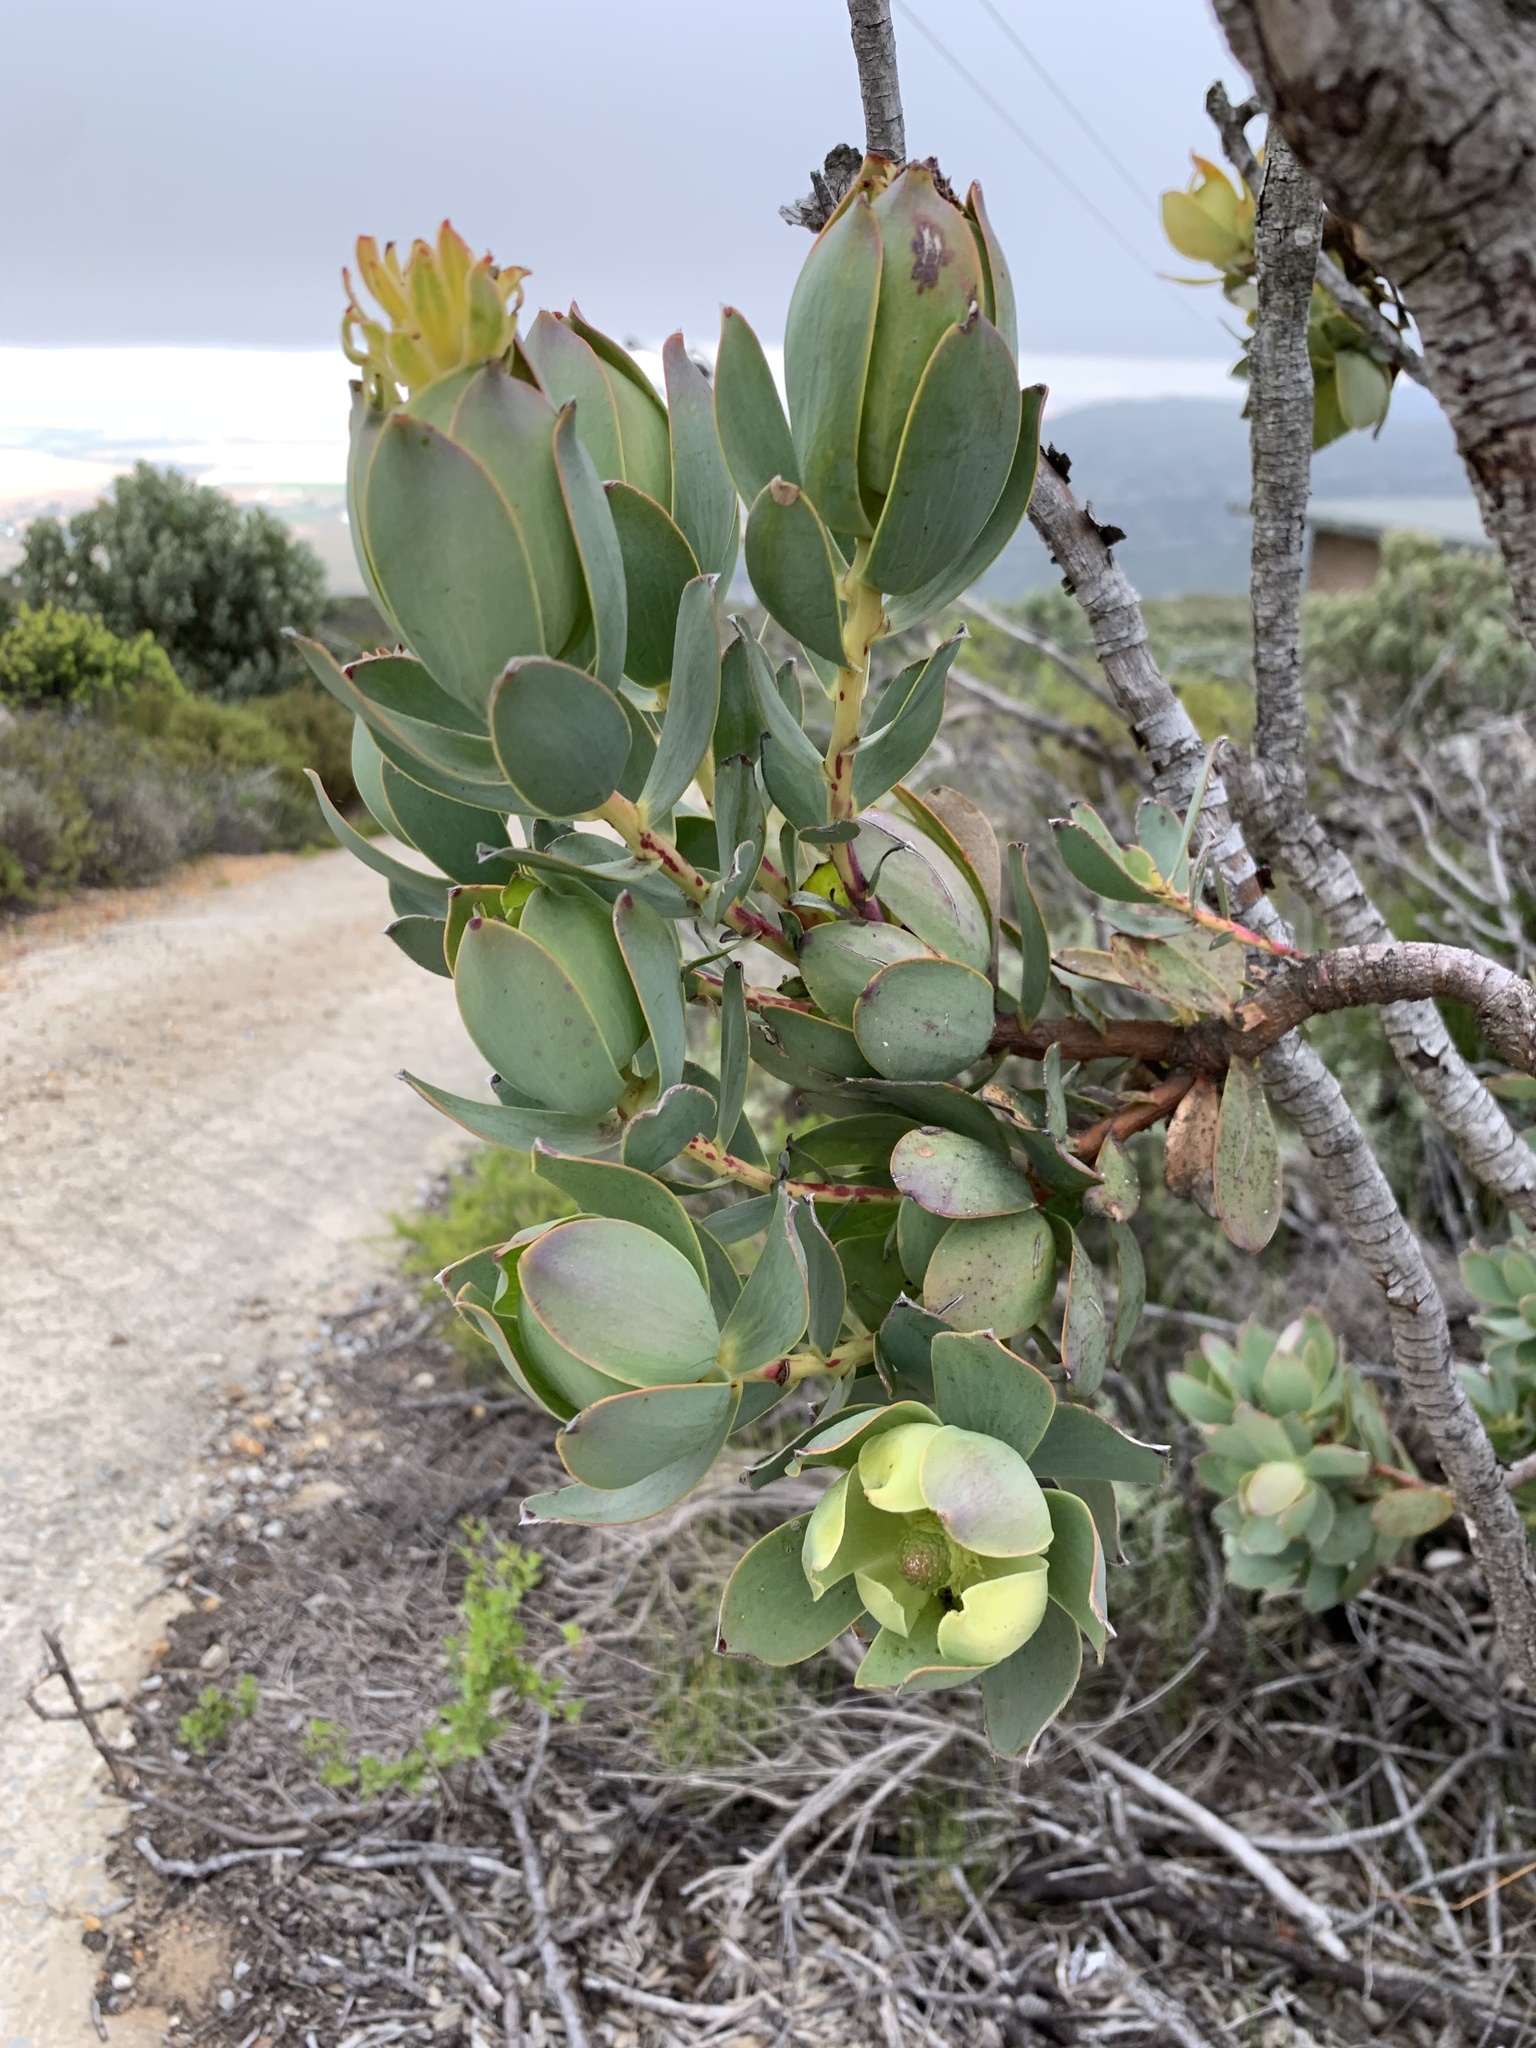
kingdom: Plantae
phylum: Tracheophyta
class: Magnoliopsida
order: Proteales
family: Proteaceae
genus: Leucadendron
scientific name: Leucadendron discolor
